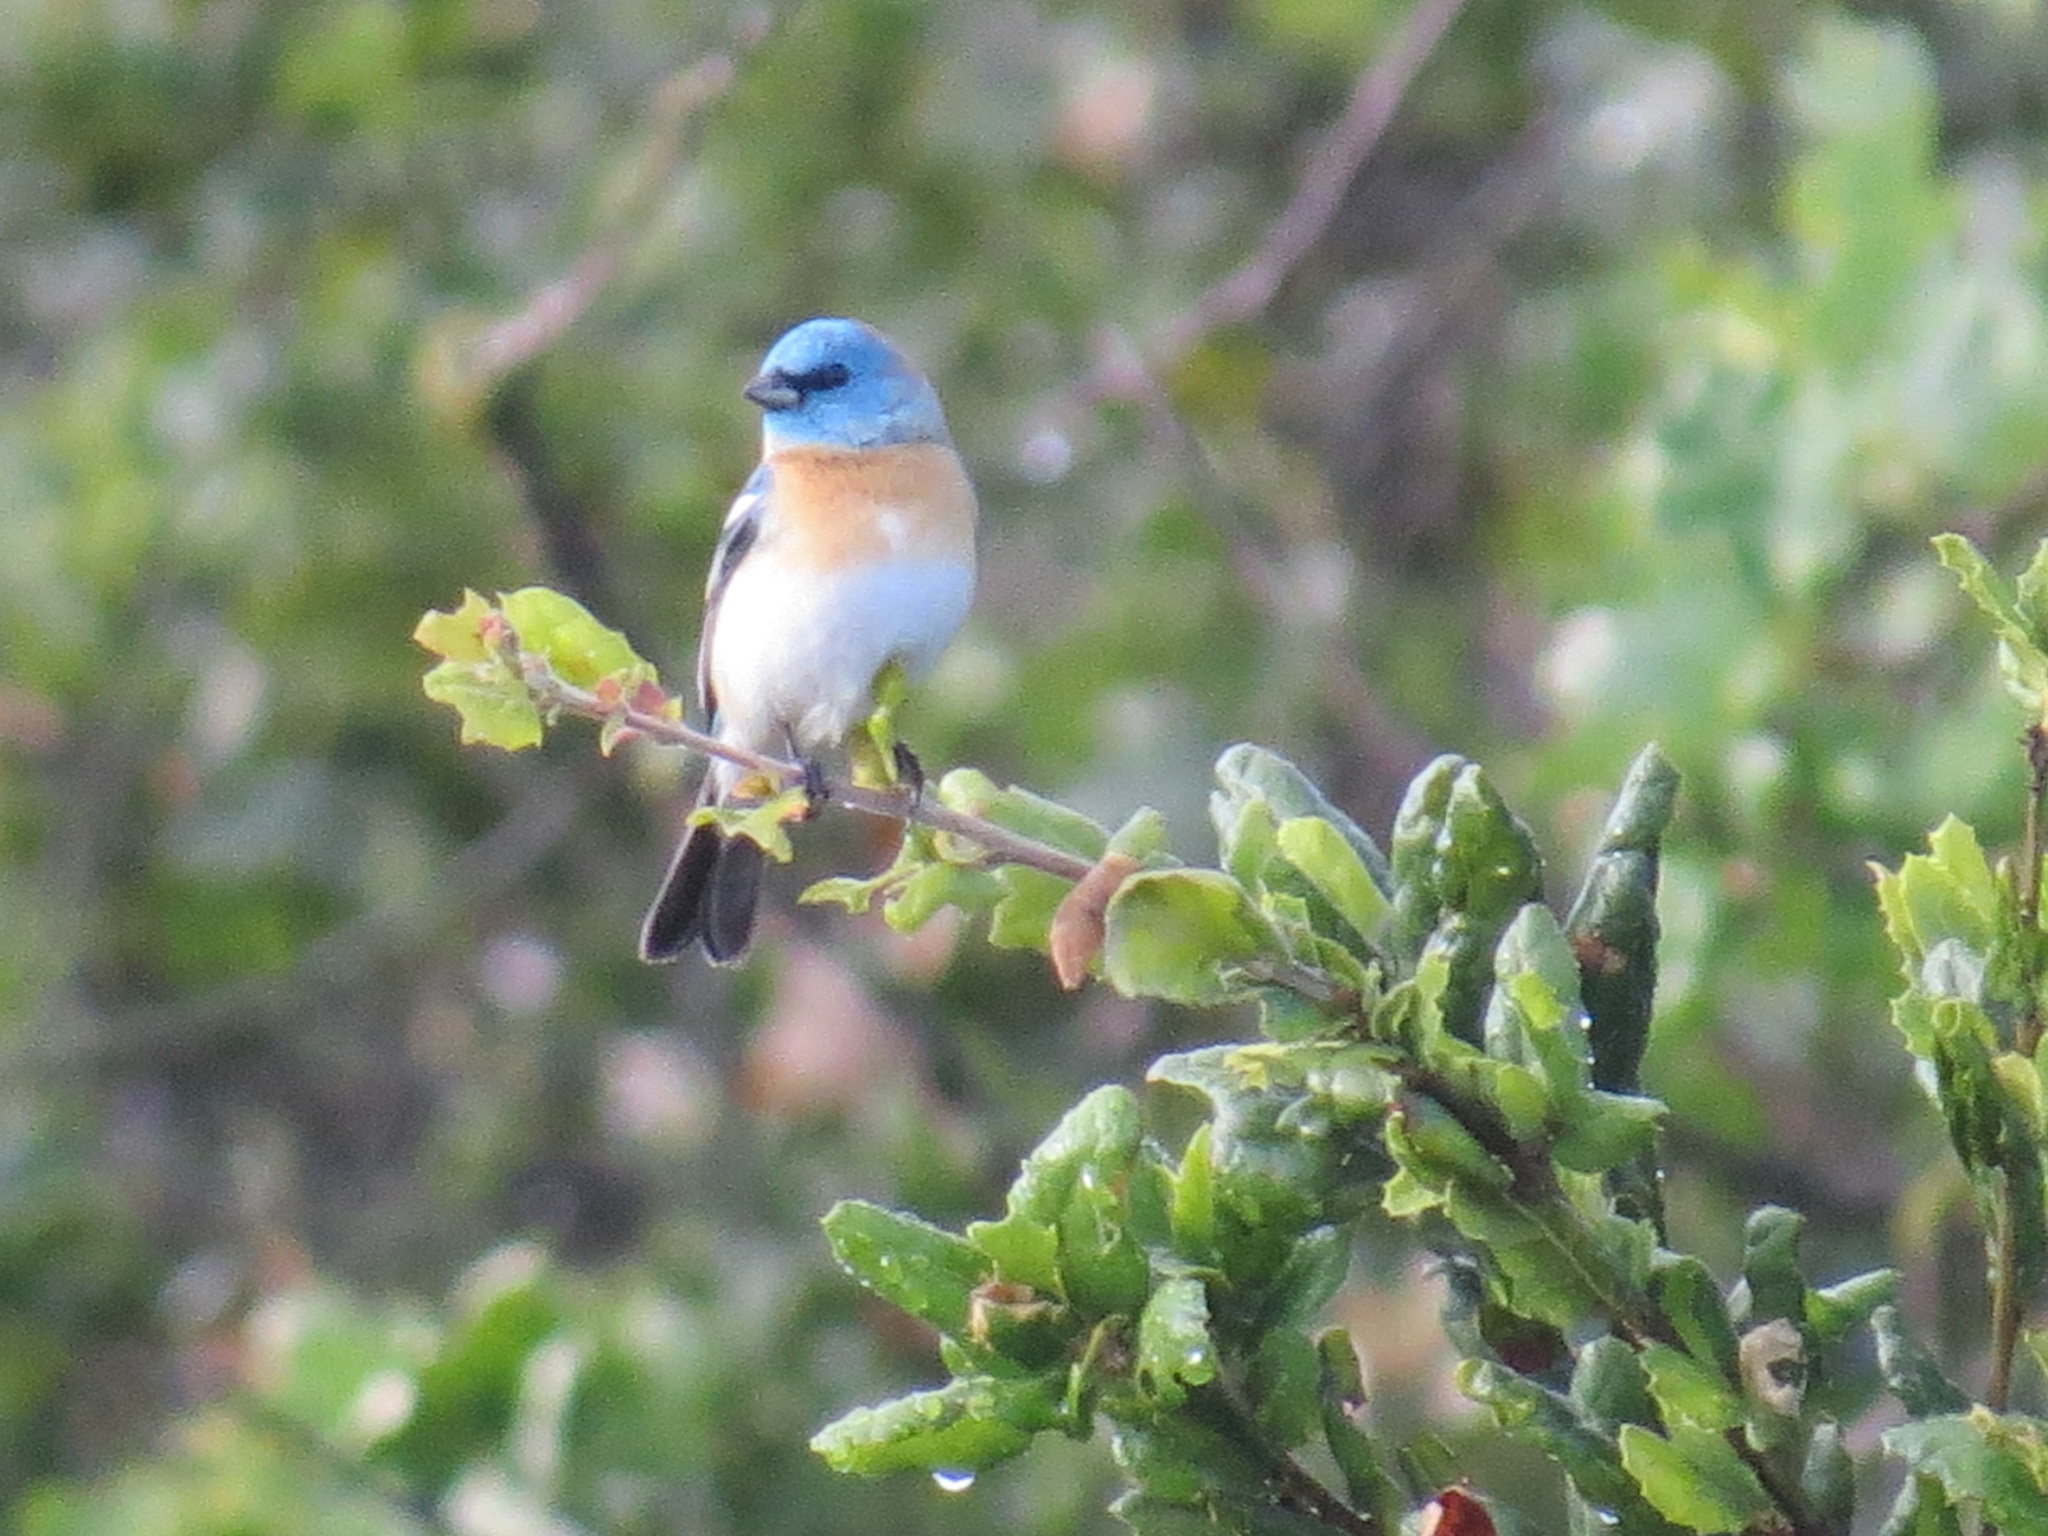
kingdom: Animalia
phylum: Chordata
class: Aves
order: Passeriformes
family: Cardinalidae
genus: Passerina
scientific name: Passerina amoena
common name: Lazuli bunting
